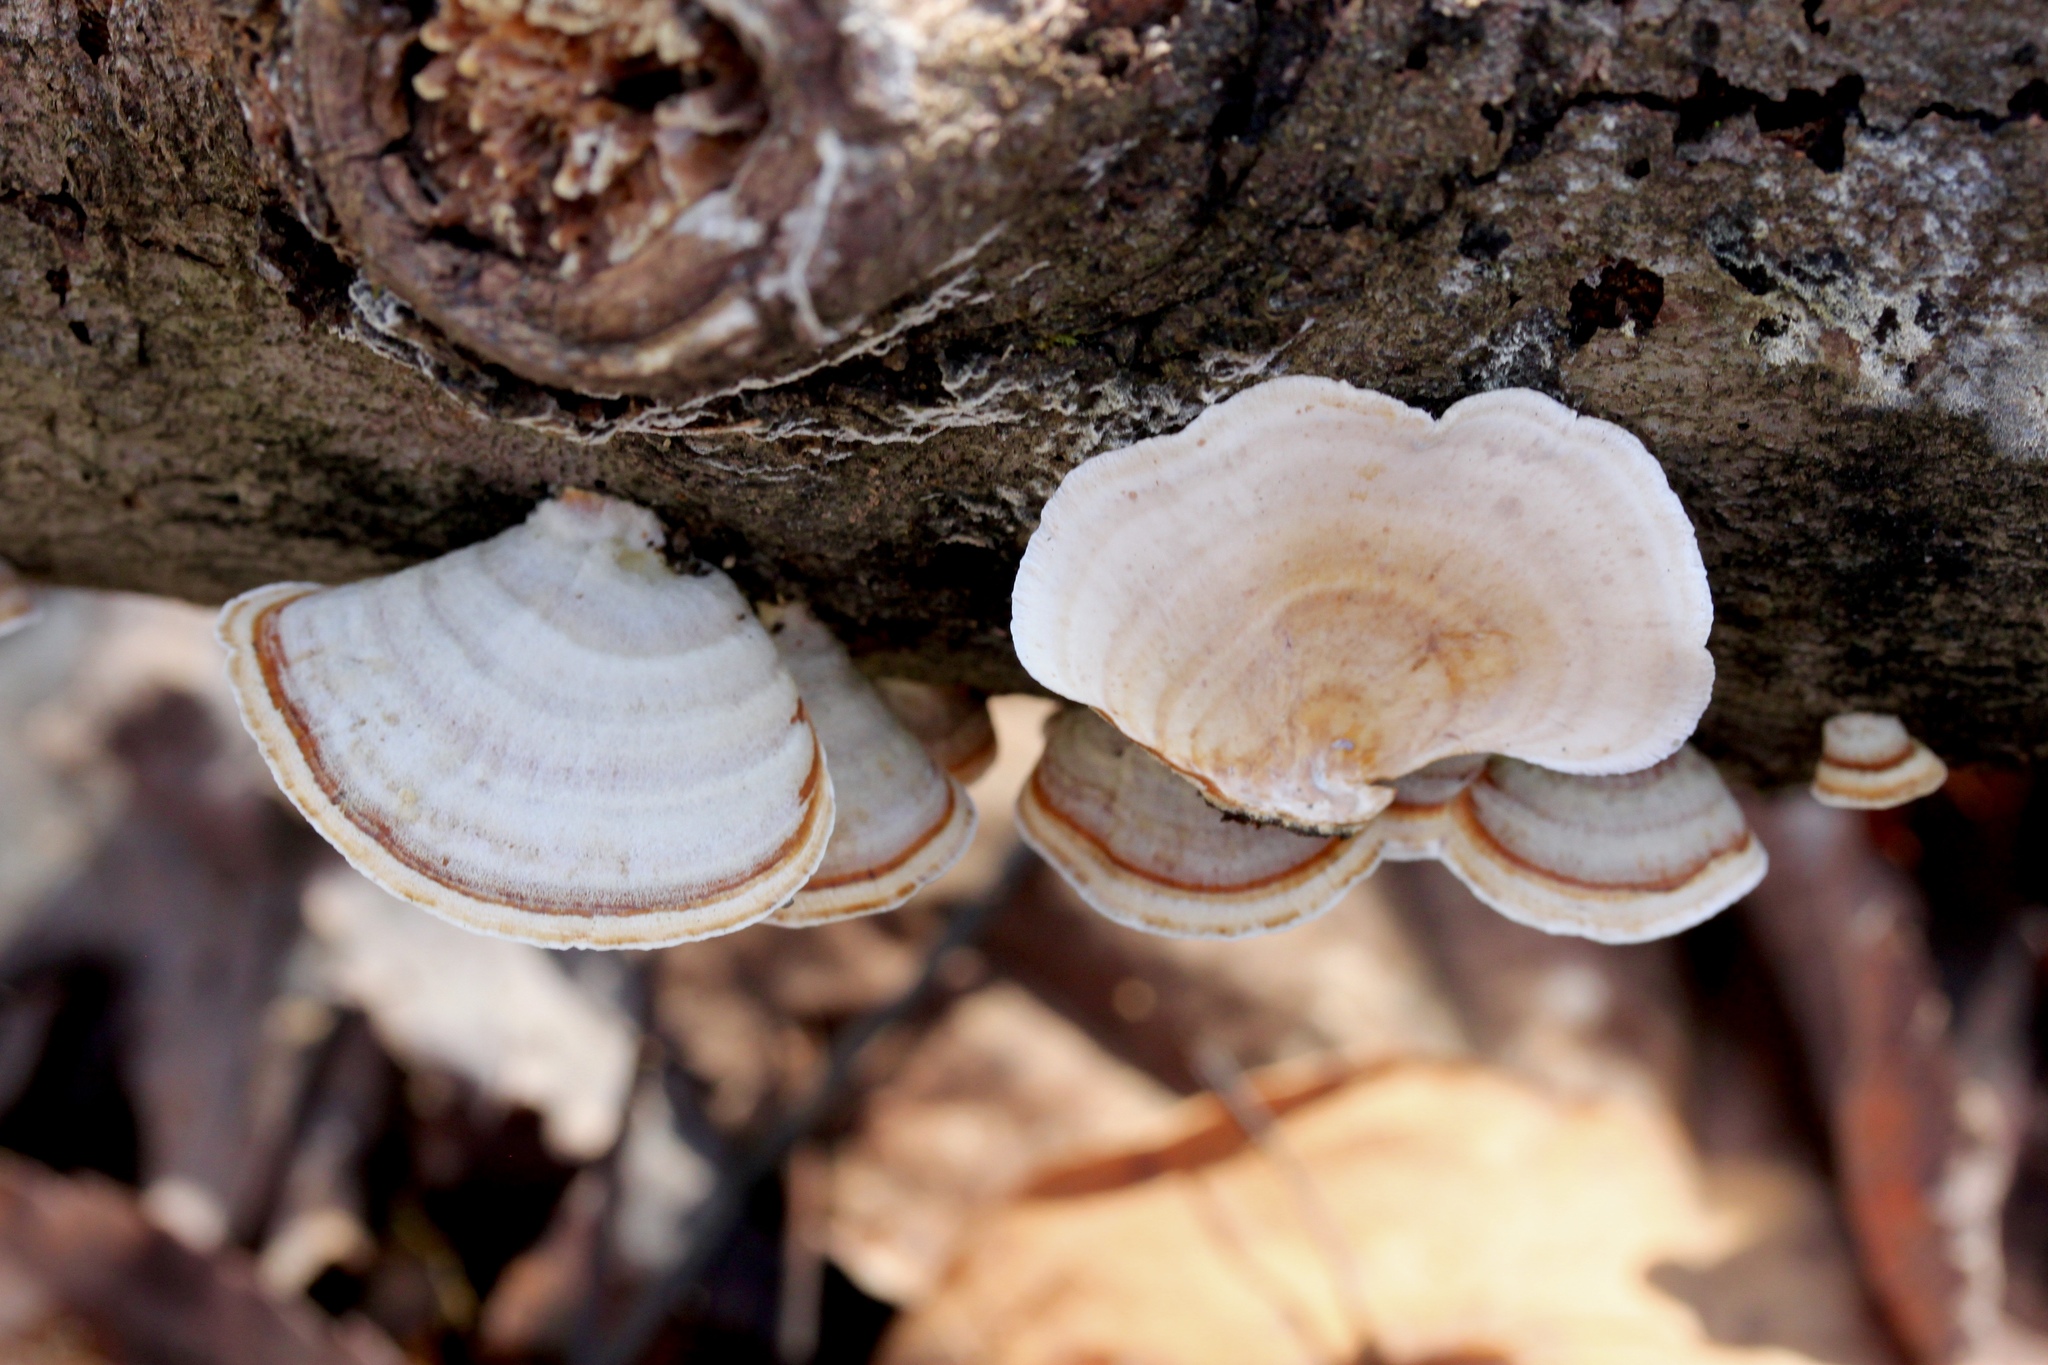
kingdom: Fungi
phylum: Basidiomycota
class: Agaricomycetes
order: Russulales
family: Stereaceae
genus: Stereum
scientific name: Stereum ostrea
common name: False turkeytail
